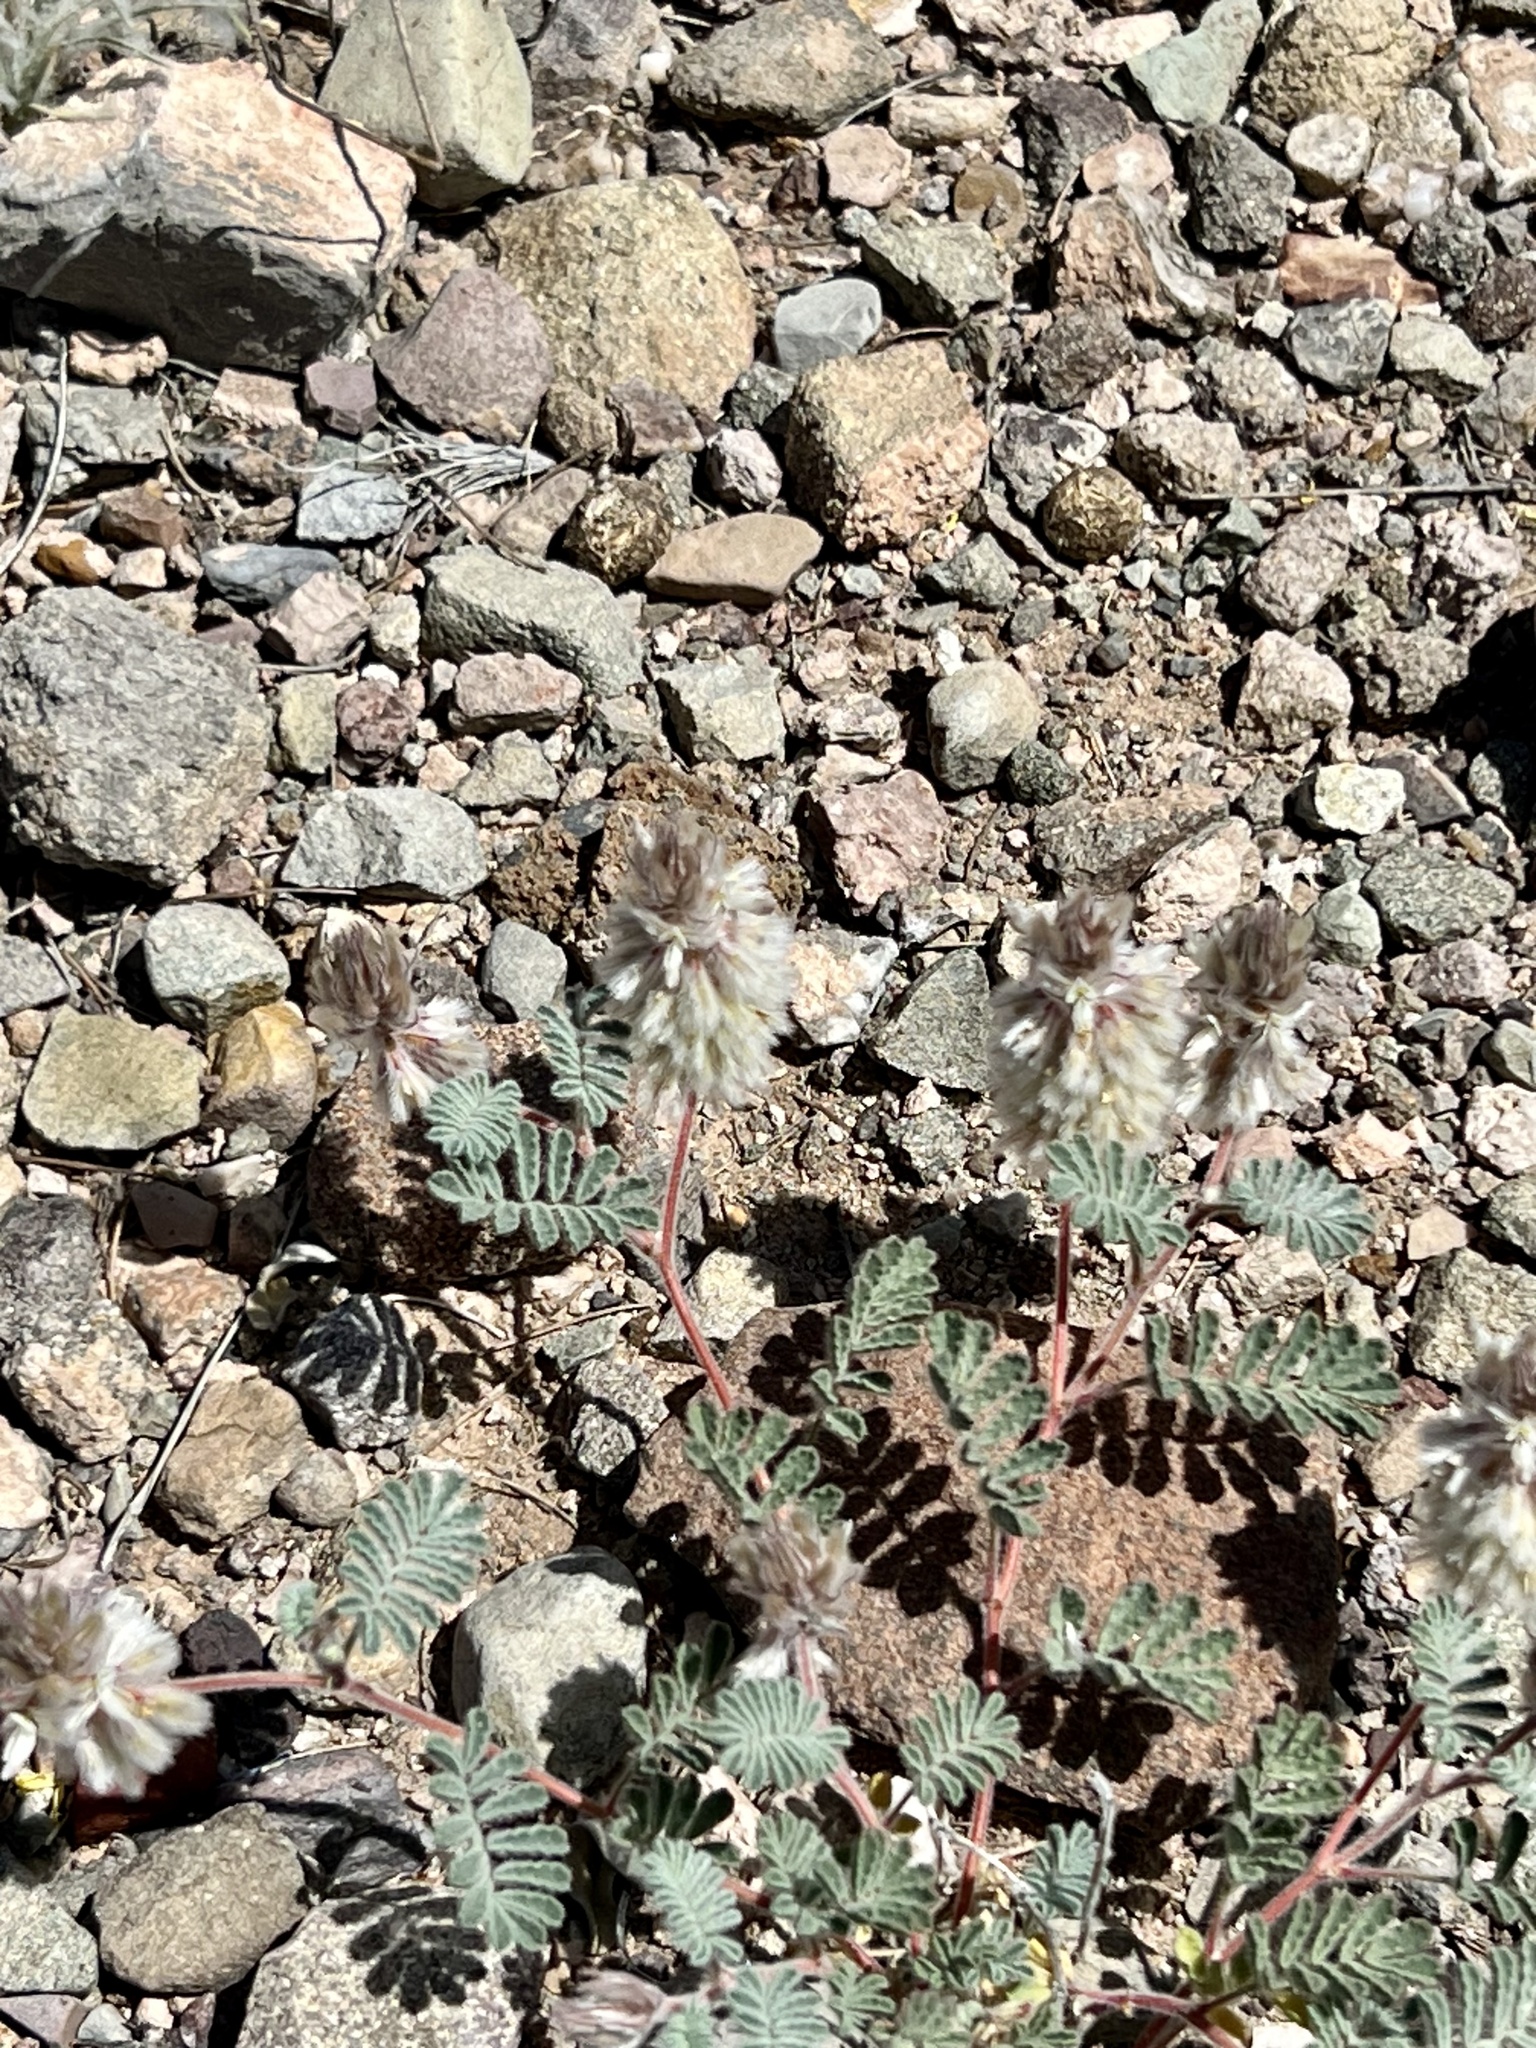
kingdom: Plantae
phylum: Tracheophyta
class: Magnoliopsida
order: Fabales
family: Fabaceae
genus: Dalea
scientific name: Dalea neomexicana
